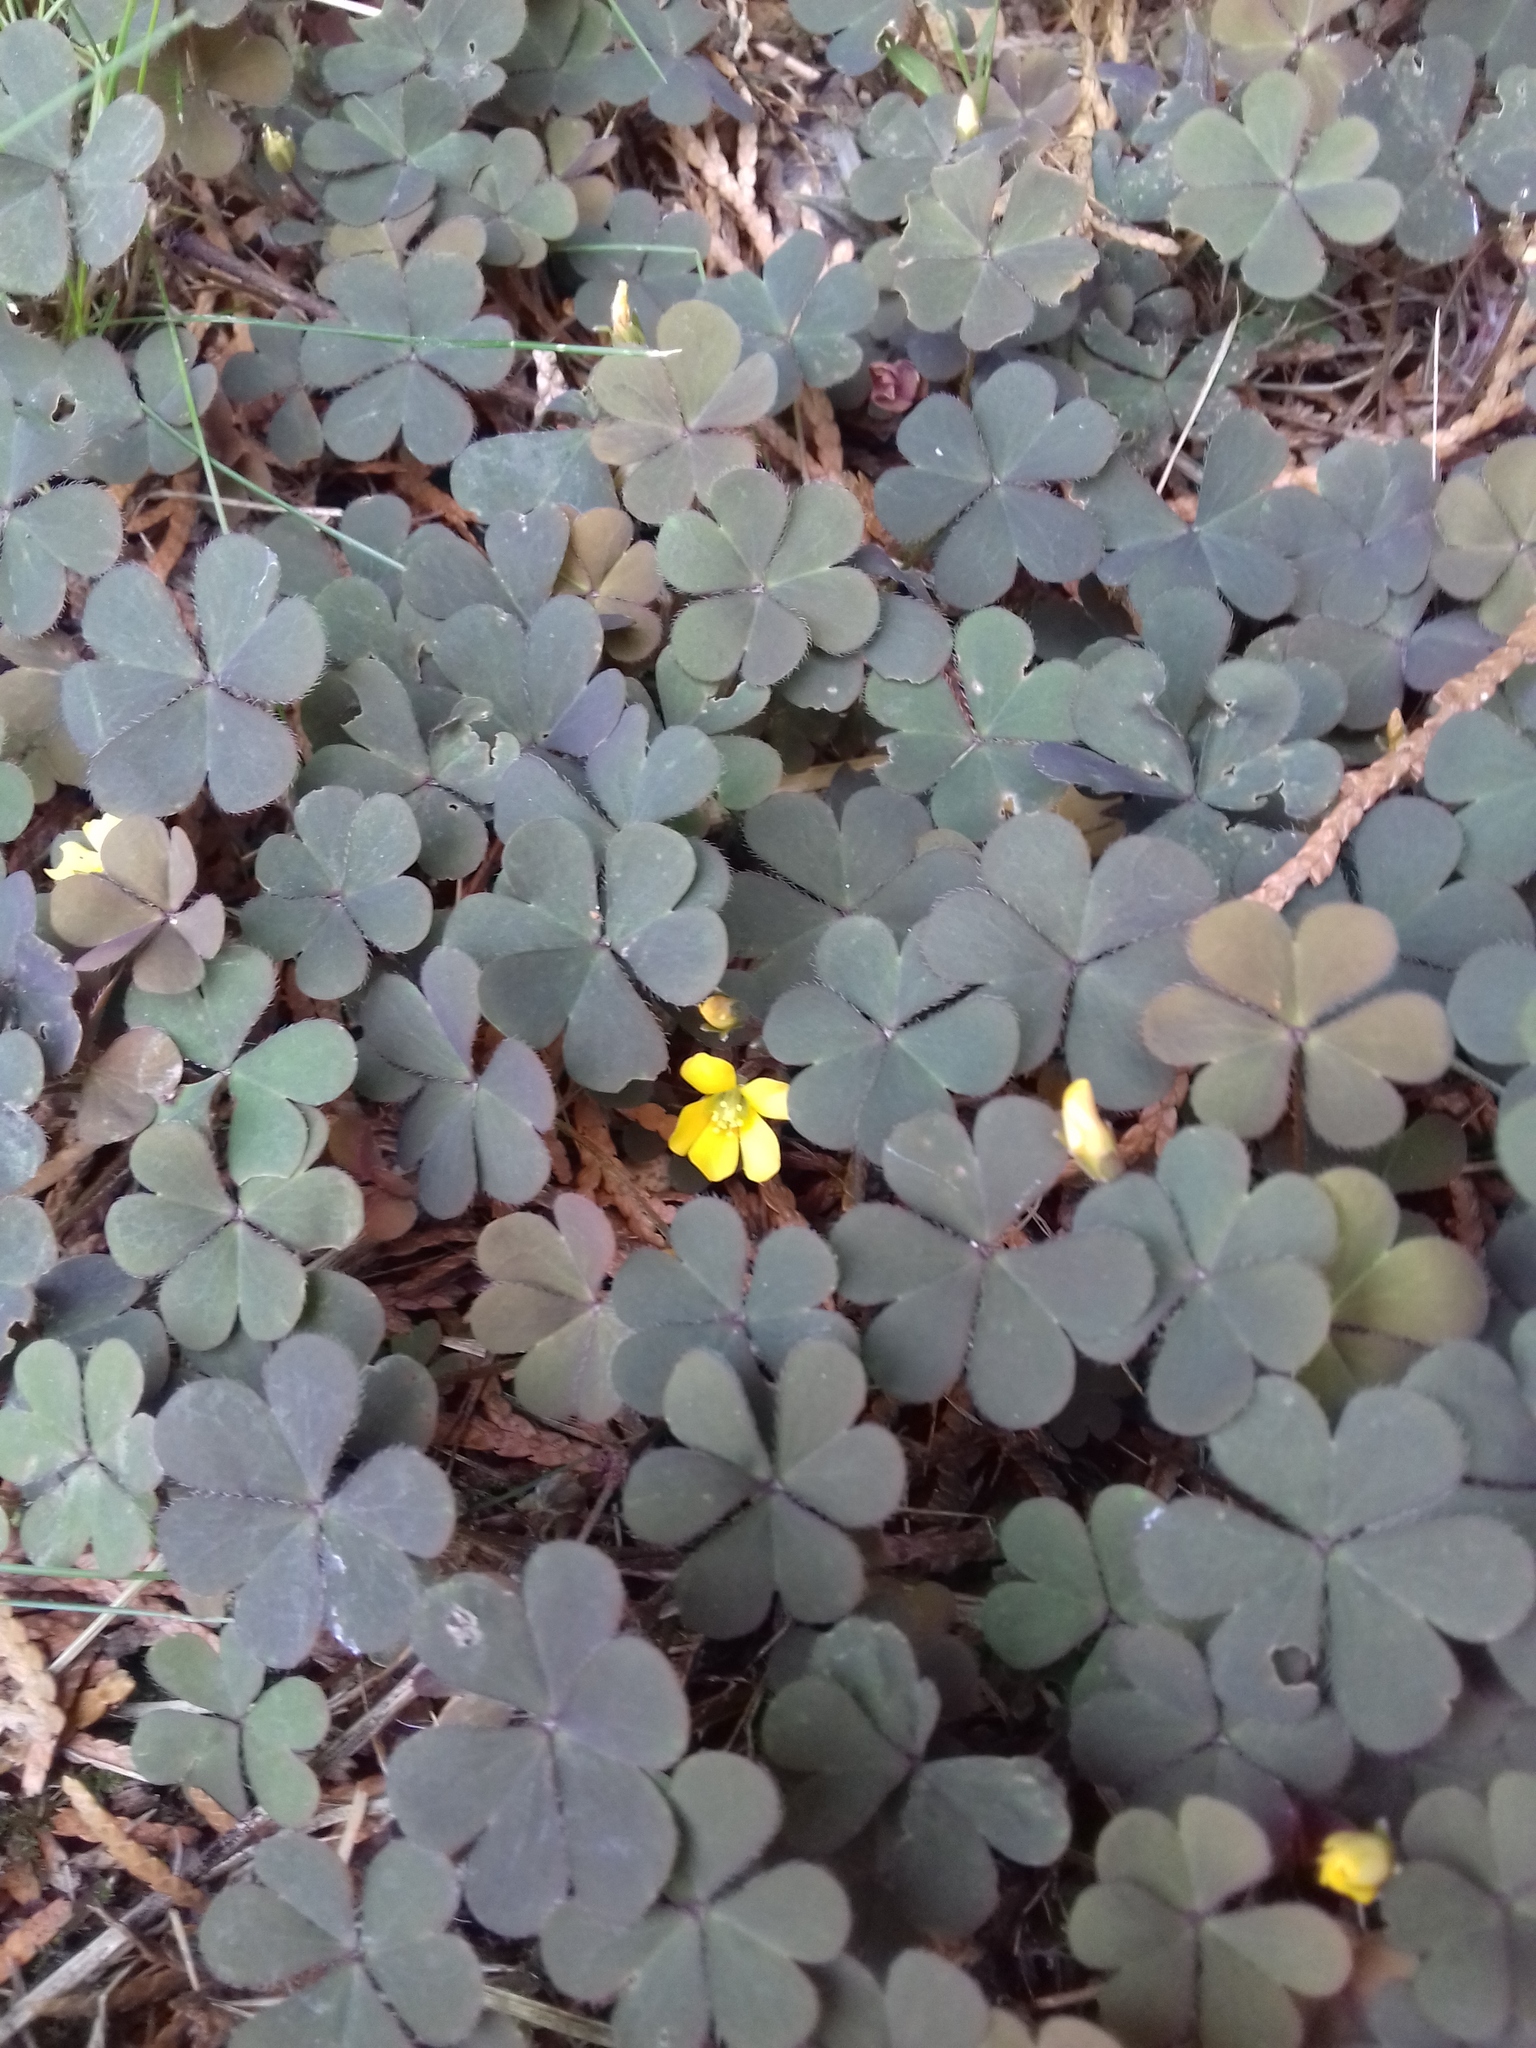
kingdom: Plantae
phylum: Tracheophyta
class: Magnoliopsida
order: Oxalidales
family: Oxalidaceae
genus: Oxalis
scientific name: Oxalis corniculata
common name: Procumbent yellow-sorrel
